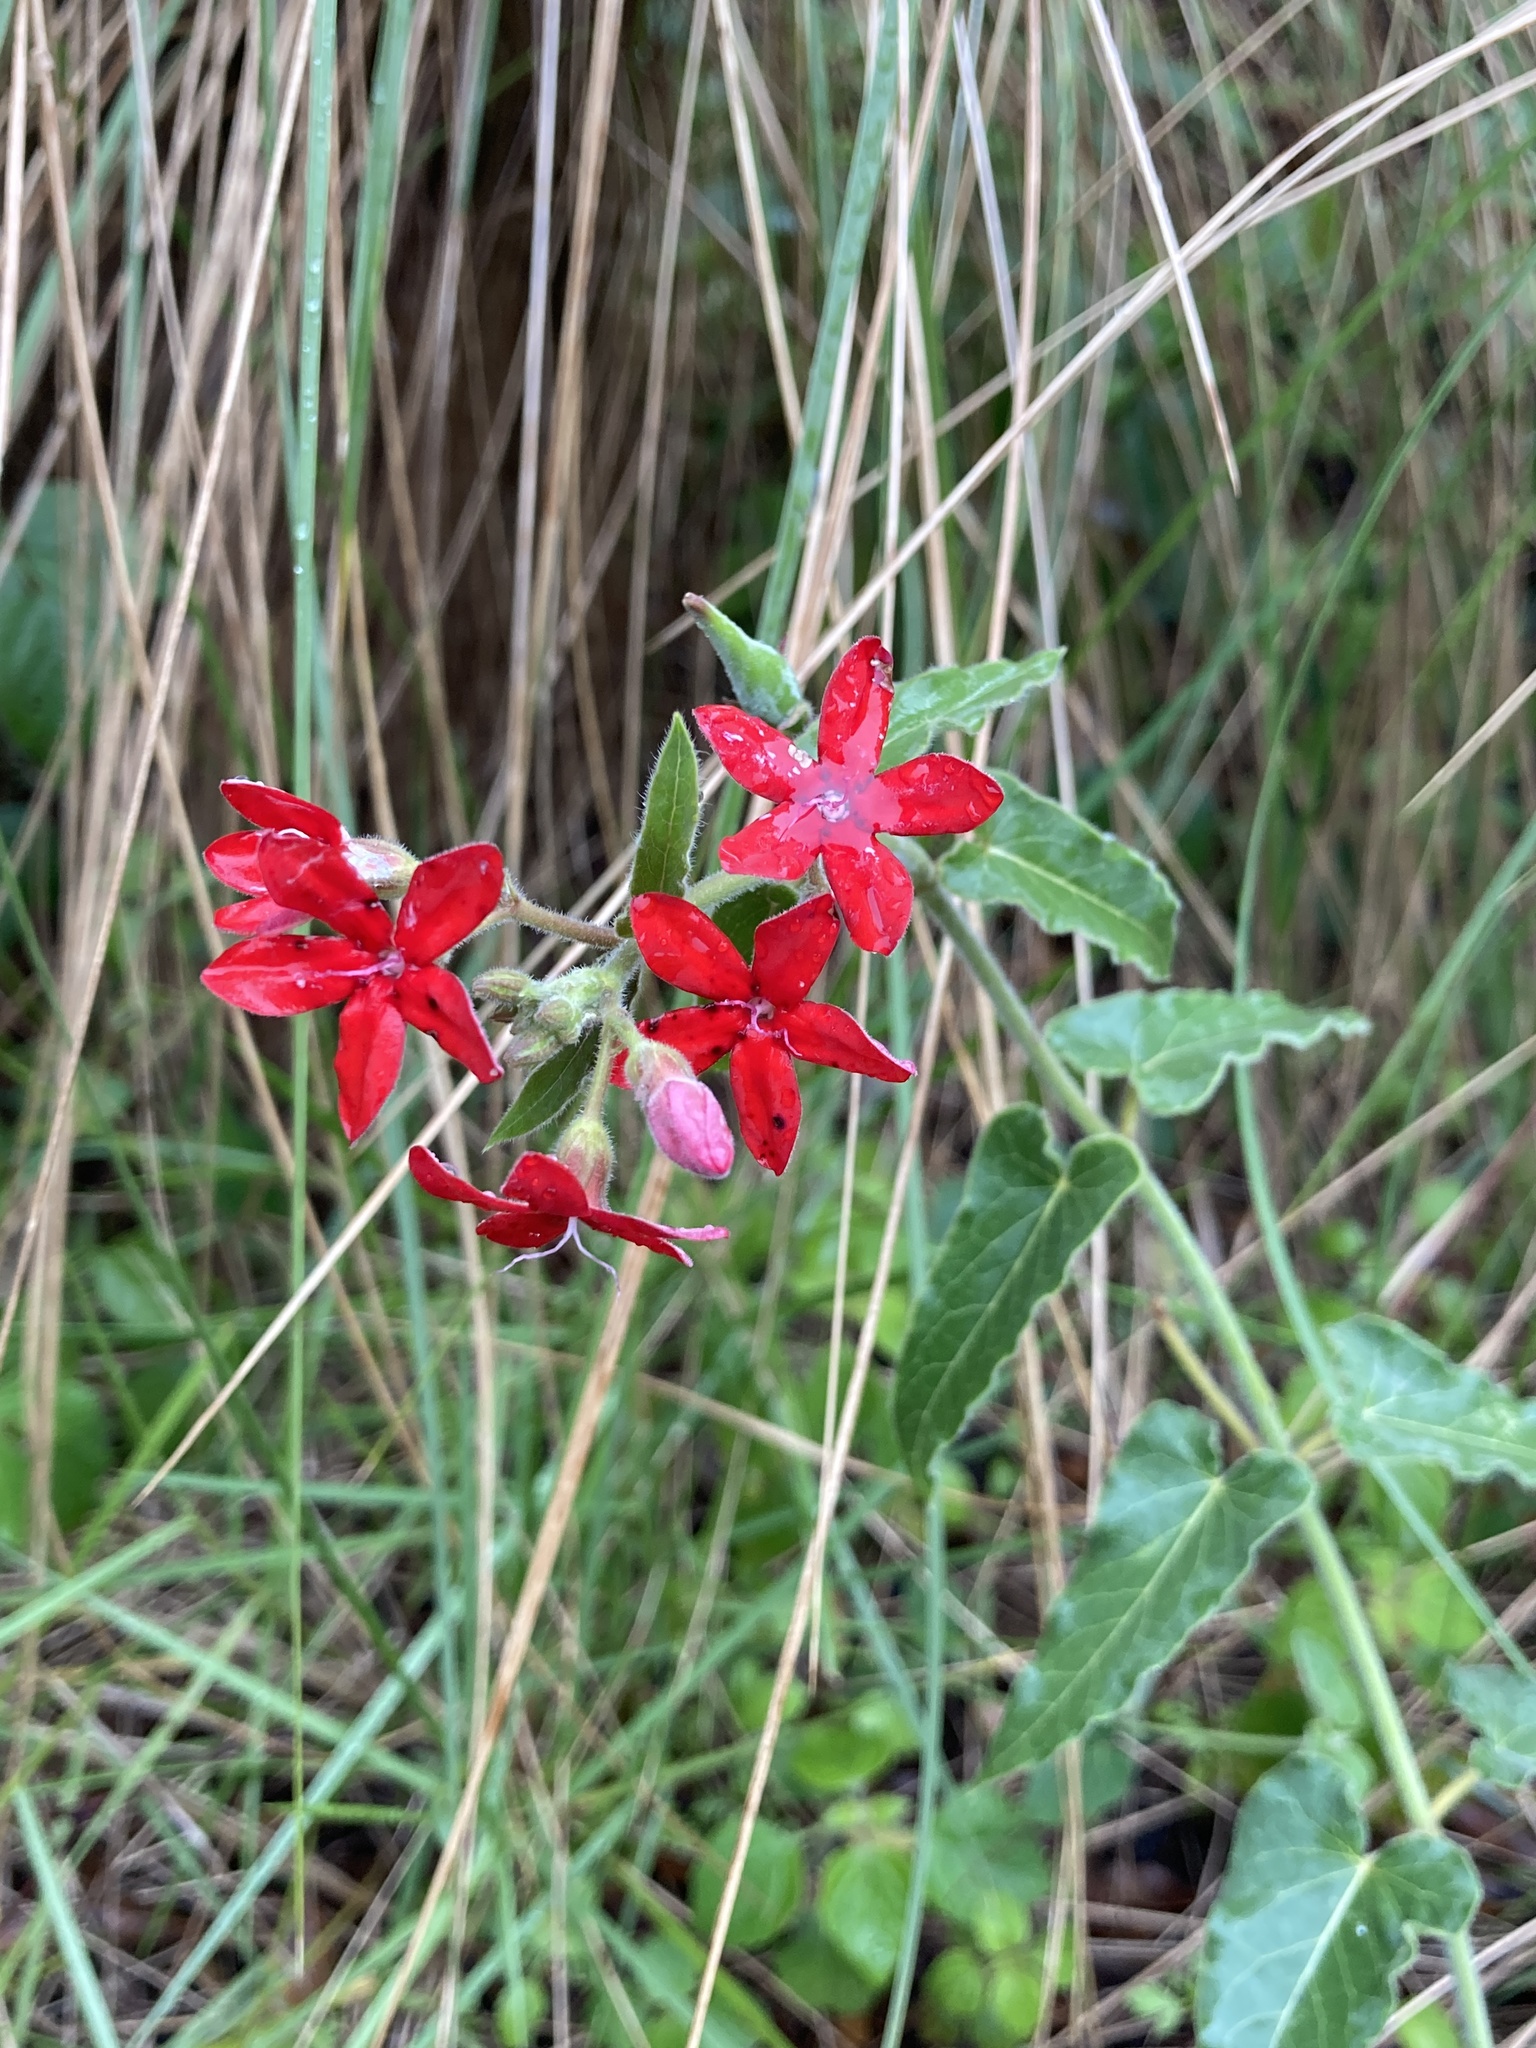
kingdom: Plantae
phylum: Tracheophyta
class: Magnoliopsida
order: Gentianales
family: Apocynaceae
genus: Oxypetalum
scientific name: Oxypetalum coccineum
